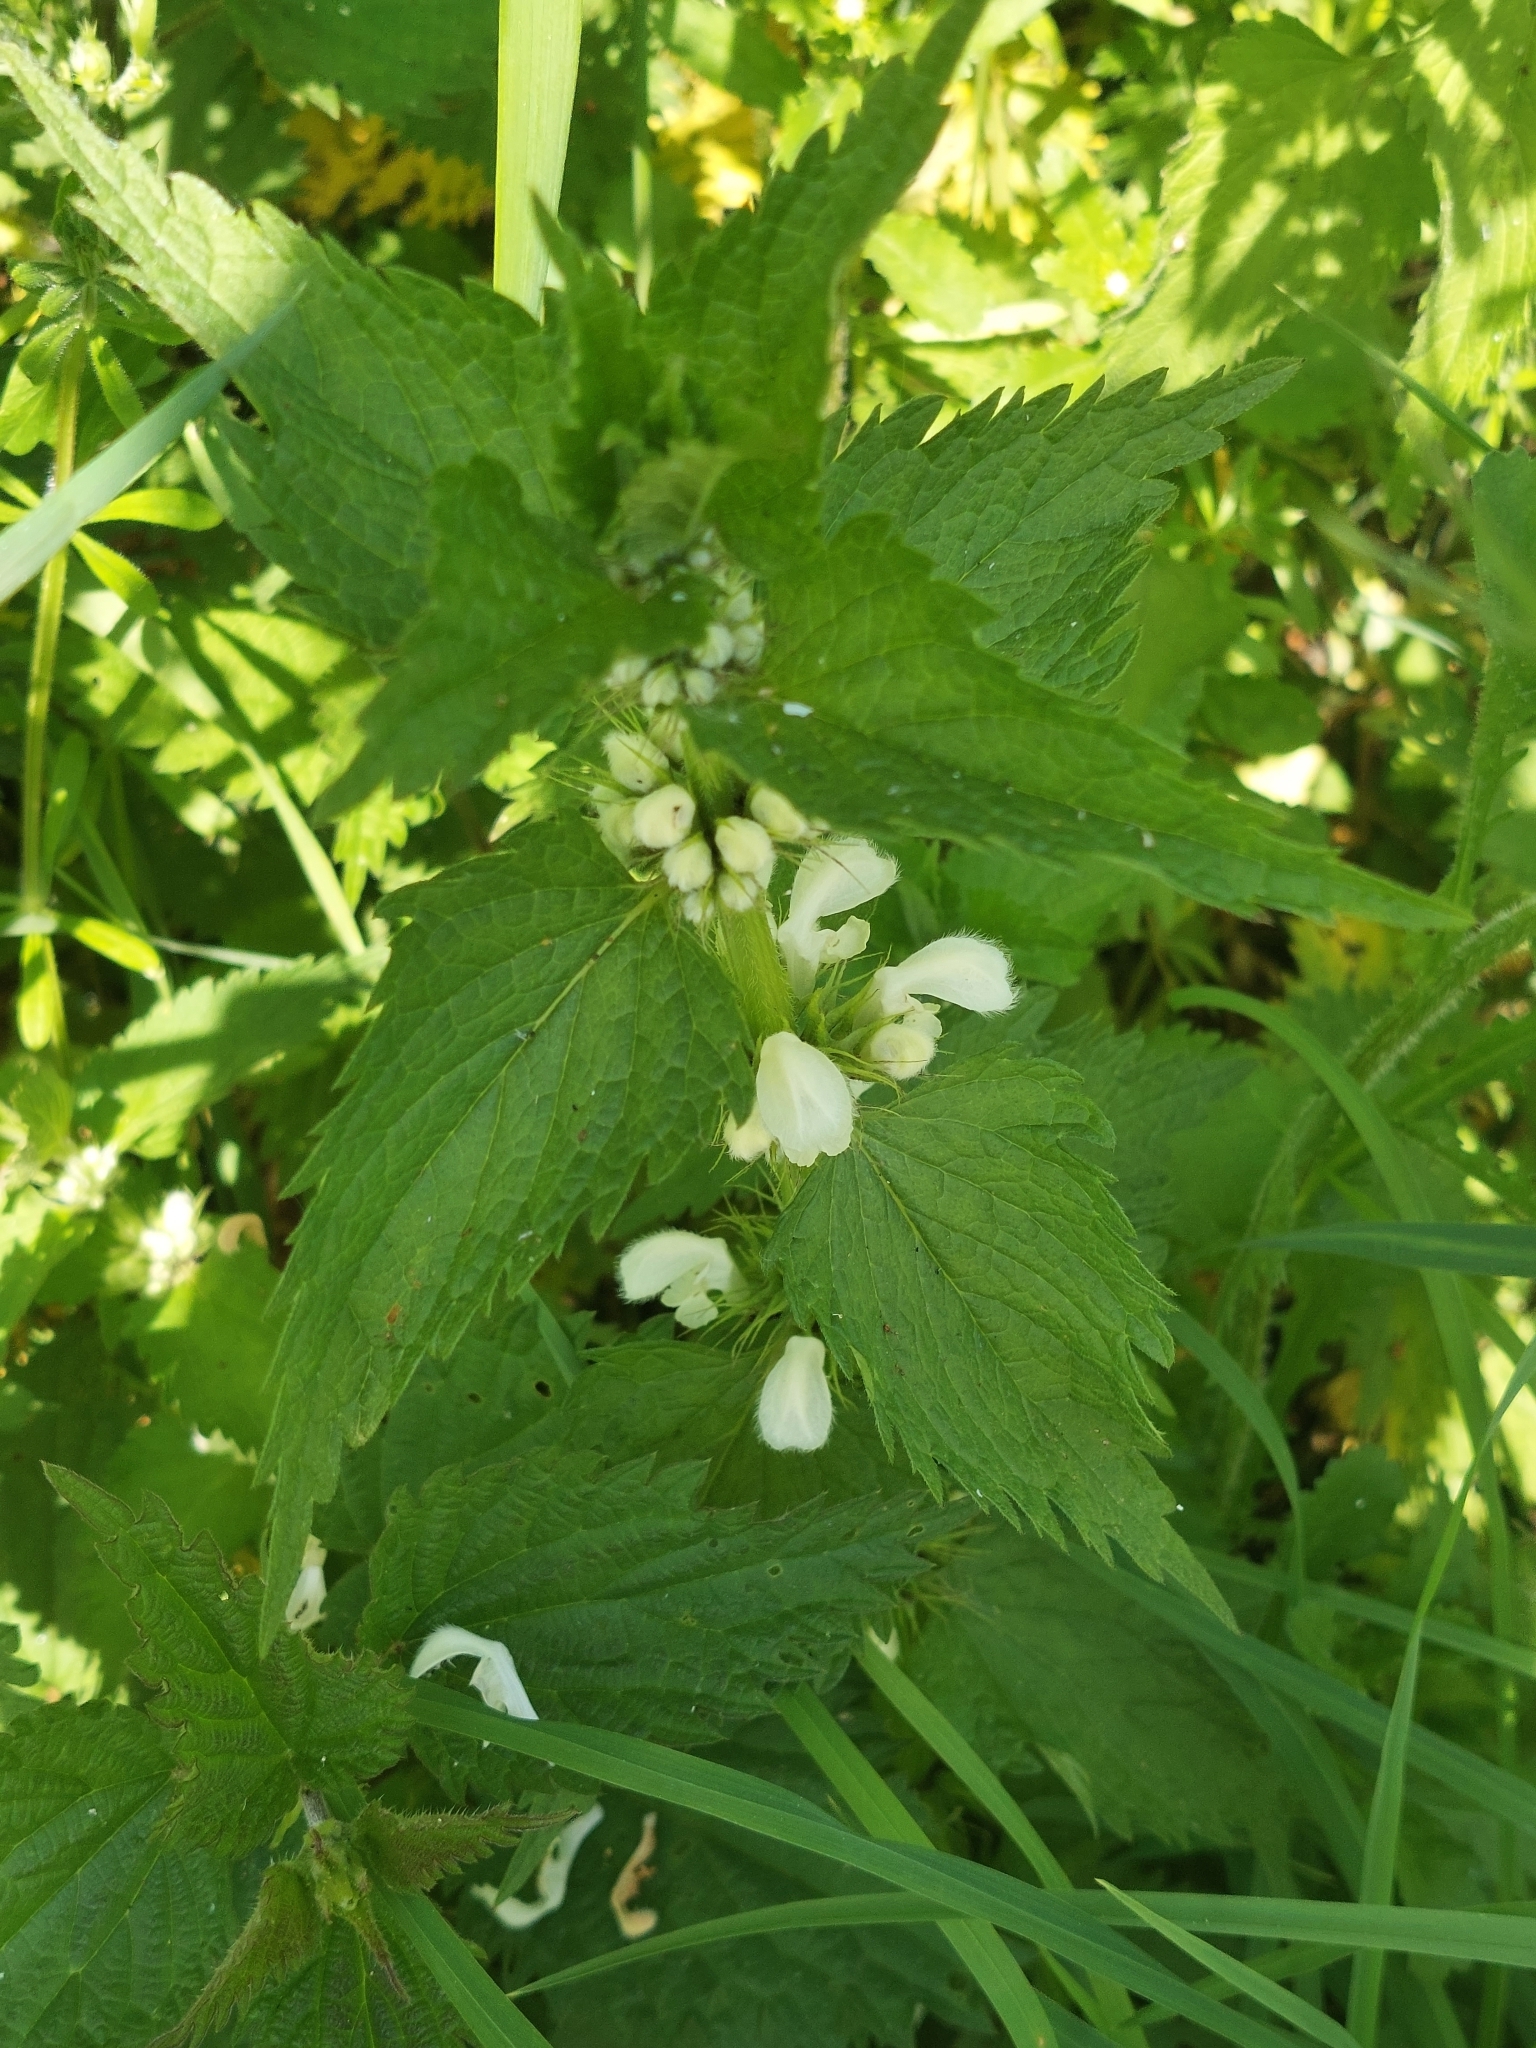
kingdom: Plantae
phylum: Tracheophyta
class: Magnoliopsida
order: Lamiales
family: Lamiaceae
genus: Lamium
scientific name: Lamium album
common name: White dead-nettle
